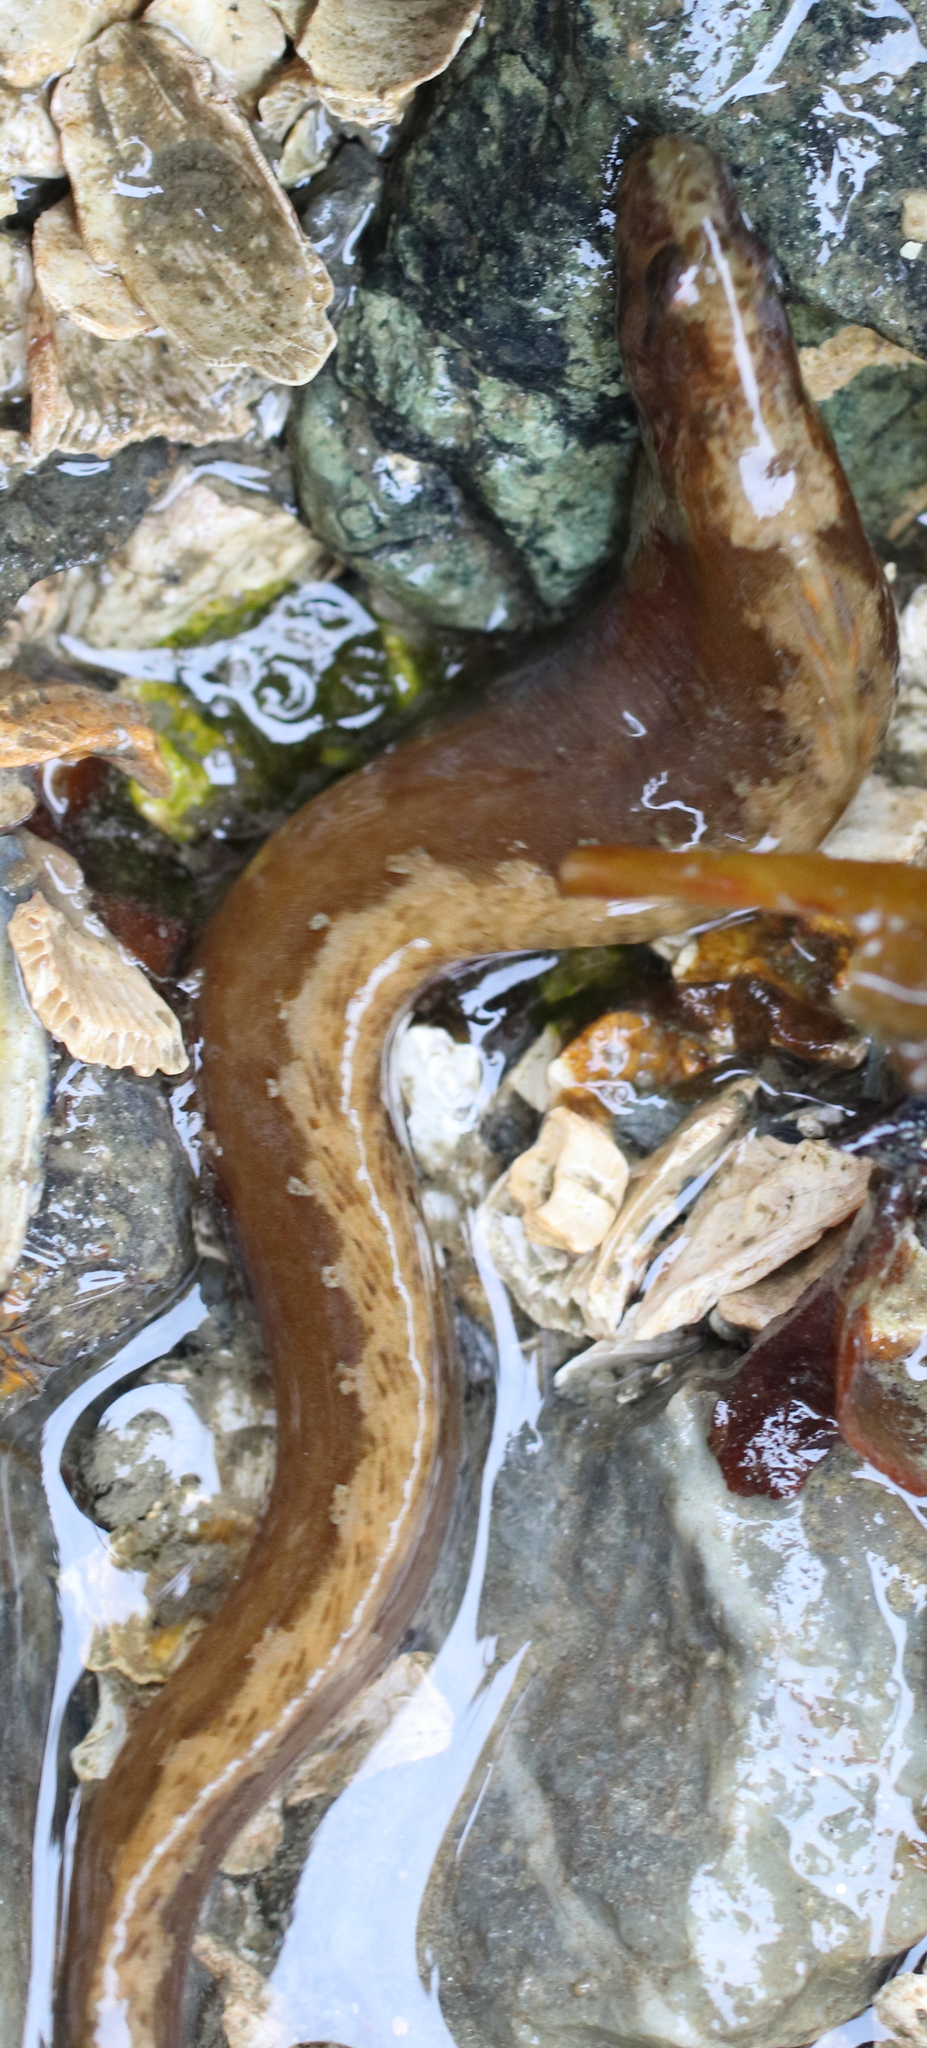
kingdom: Animalia
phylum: Chordata
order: Perciformes
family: Stichaeidae
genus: Anoplarchus
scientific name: Anoplarchus purpurescens
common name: High cockscomb
